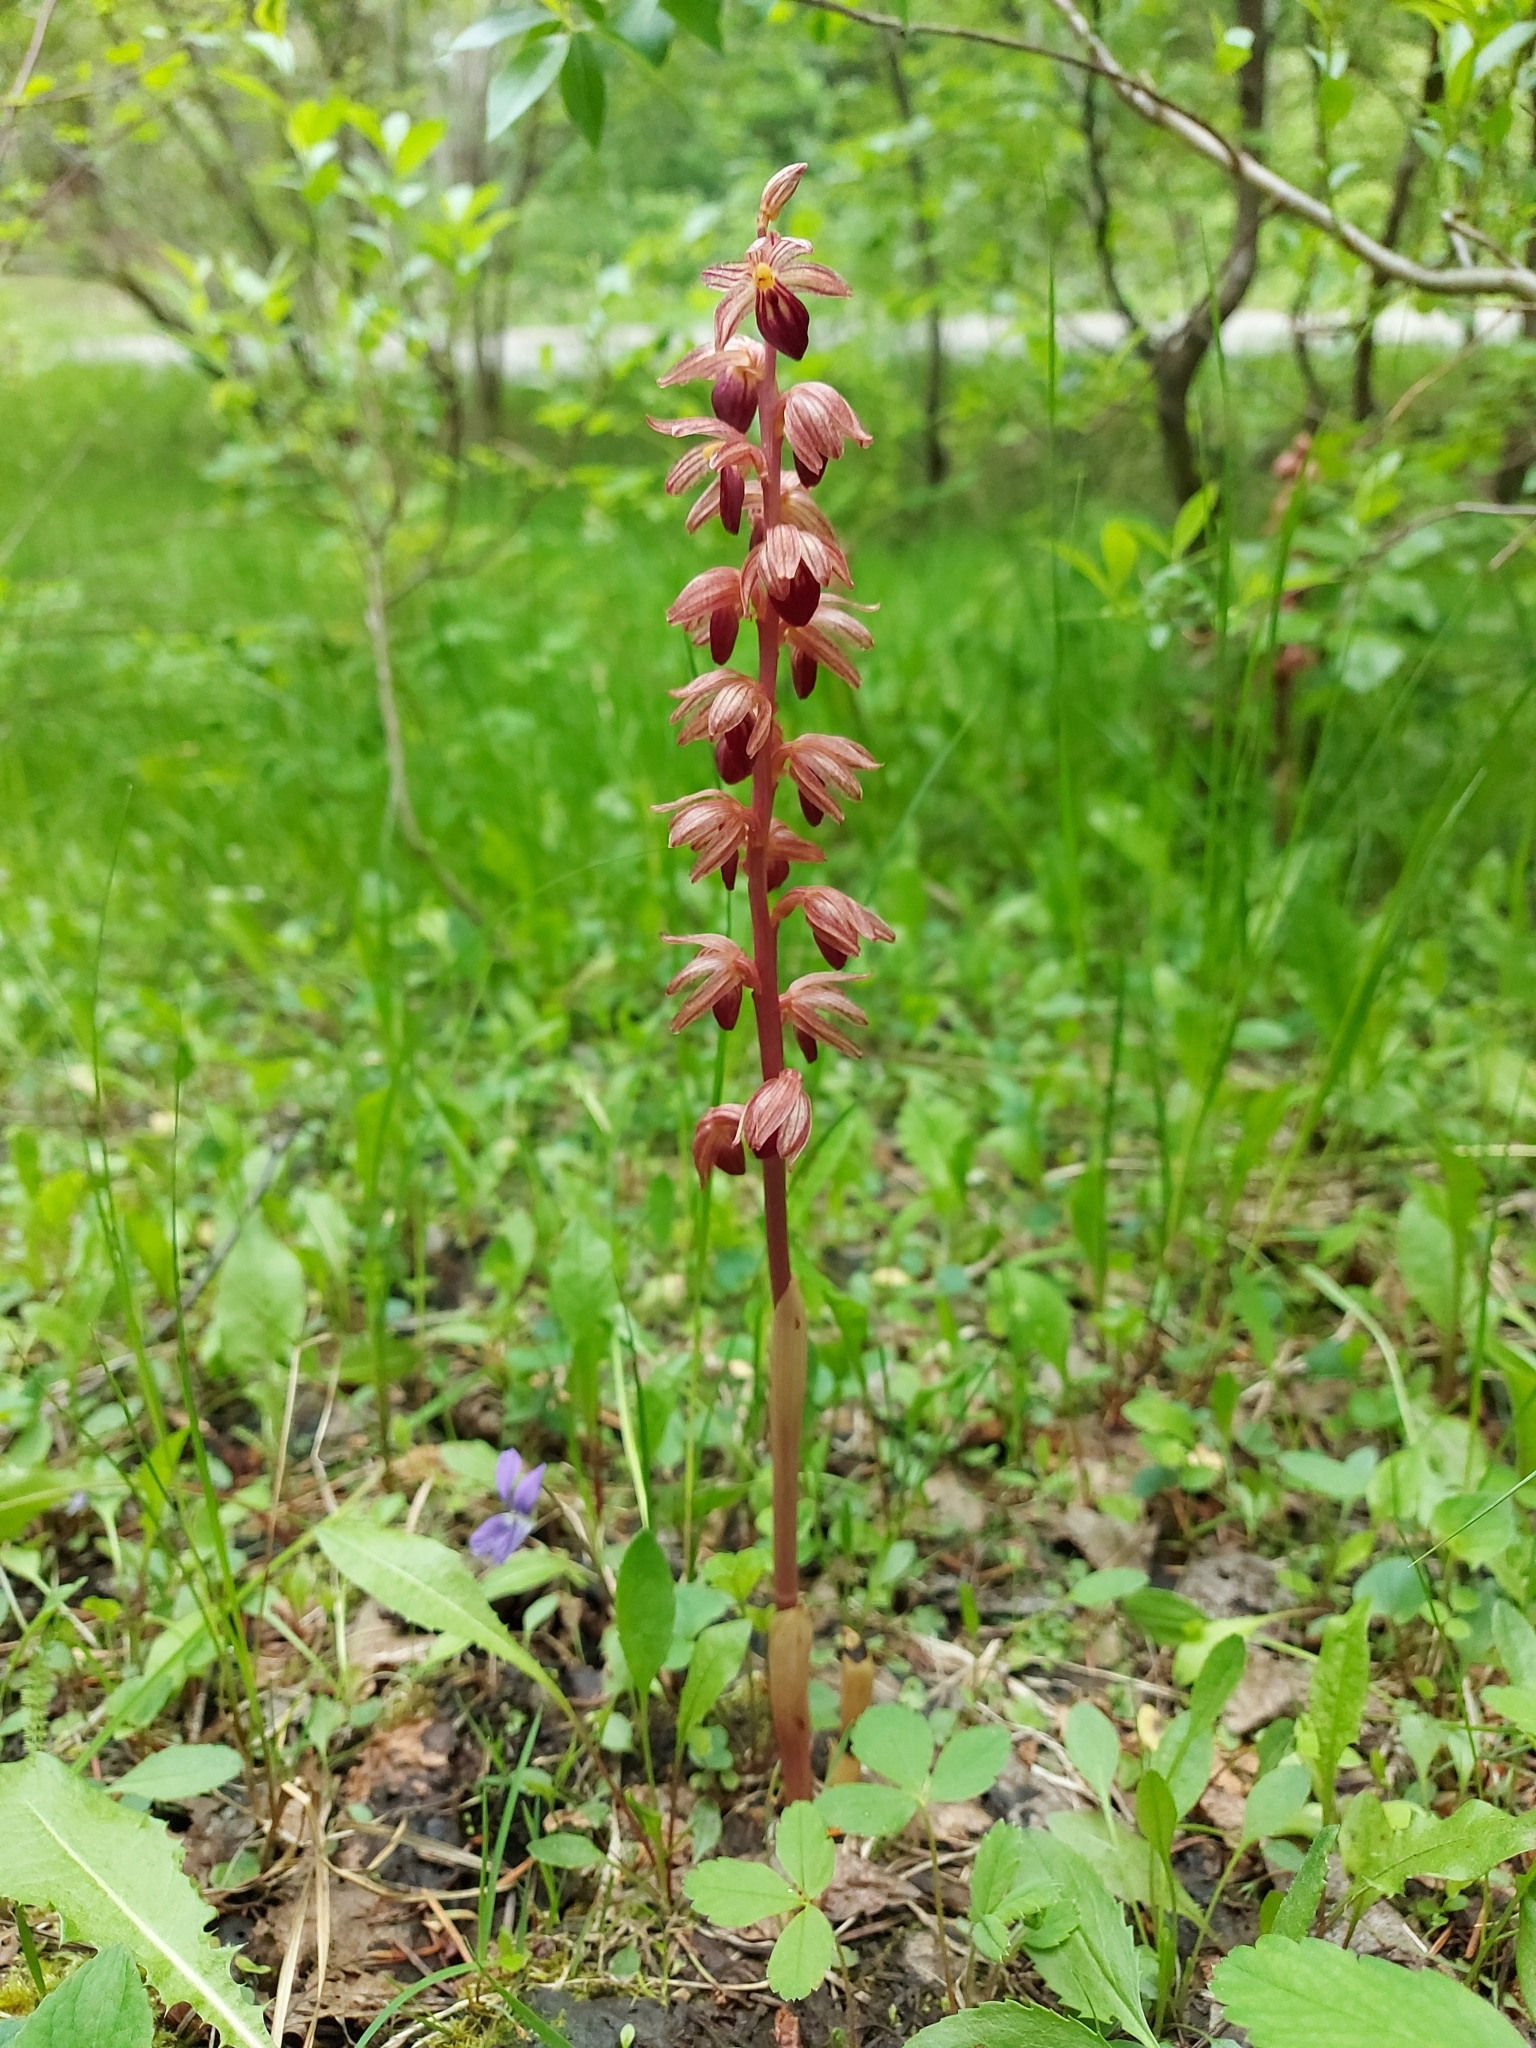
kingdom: Plantae
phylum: Tracheophyta
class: Liliopsida
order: Asparagales
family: Orchidaceae
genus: Corallorhiza
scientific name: Corallorhiza striata
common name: Hooded coralroot
